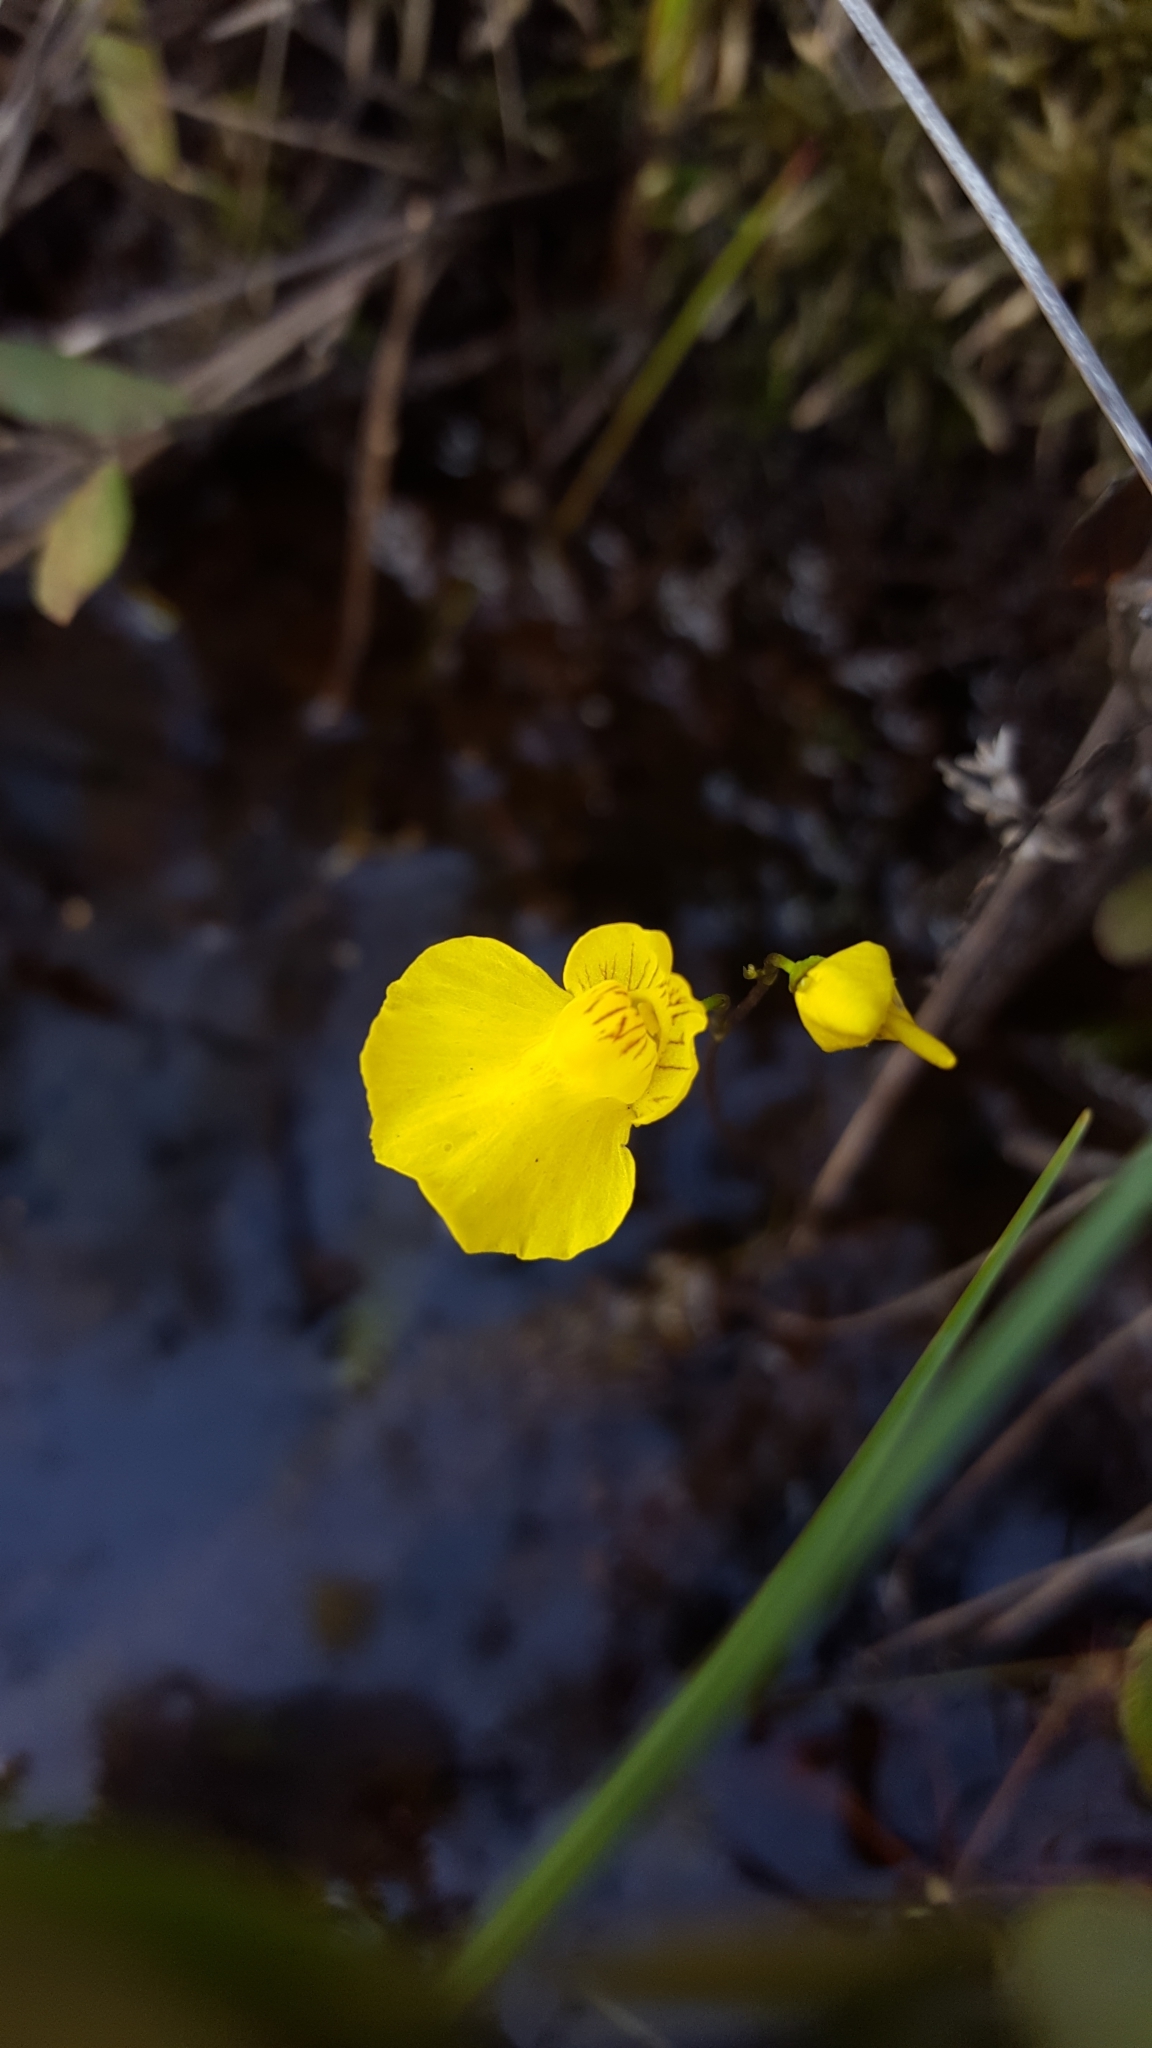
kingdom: Plantae
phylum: Tracheophyta
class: Magnoliopsida
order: Lamiales
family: Lentibulariaceae
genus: Utricularia
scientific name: Utricularia intermedia
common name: Intermediate bladderwort
